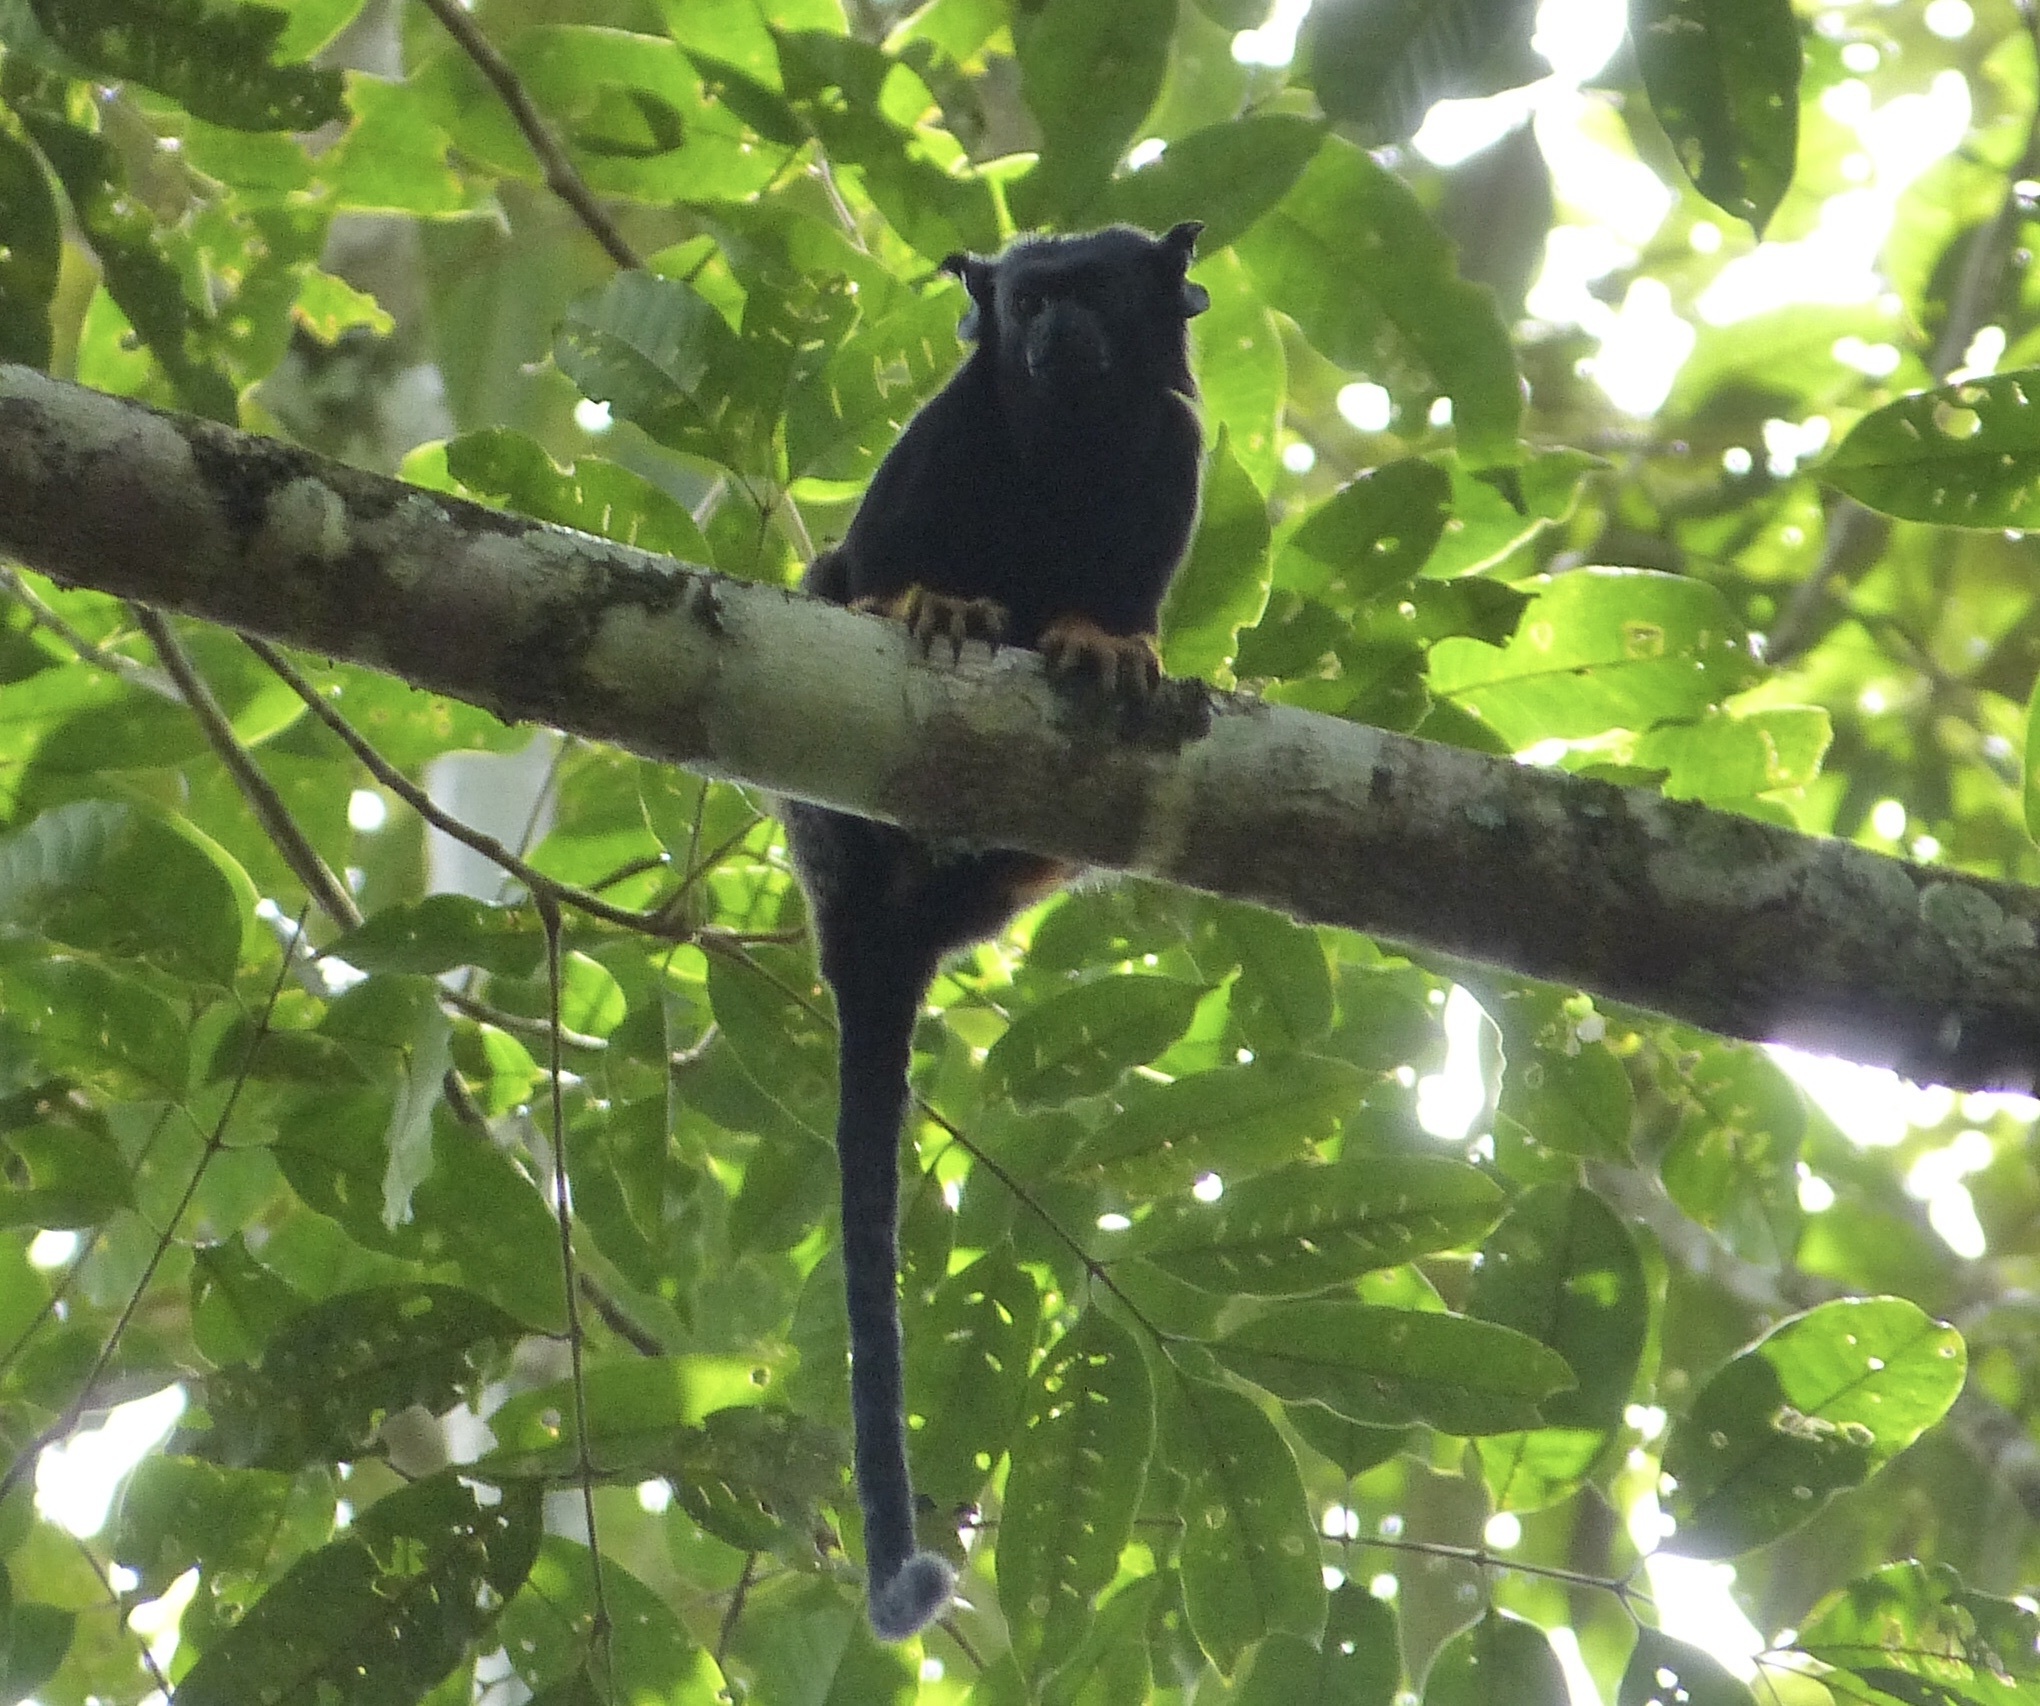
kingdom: Animalia
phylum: Chordata
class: Mammalia
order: Primates
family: Callitrichidae
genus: Saguinus
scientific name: Saguinus midas
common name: Red-handed tamarin
